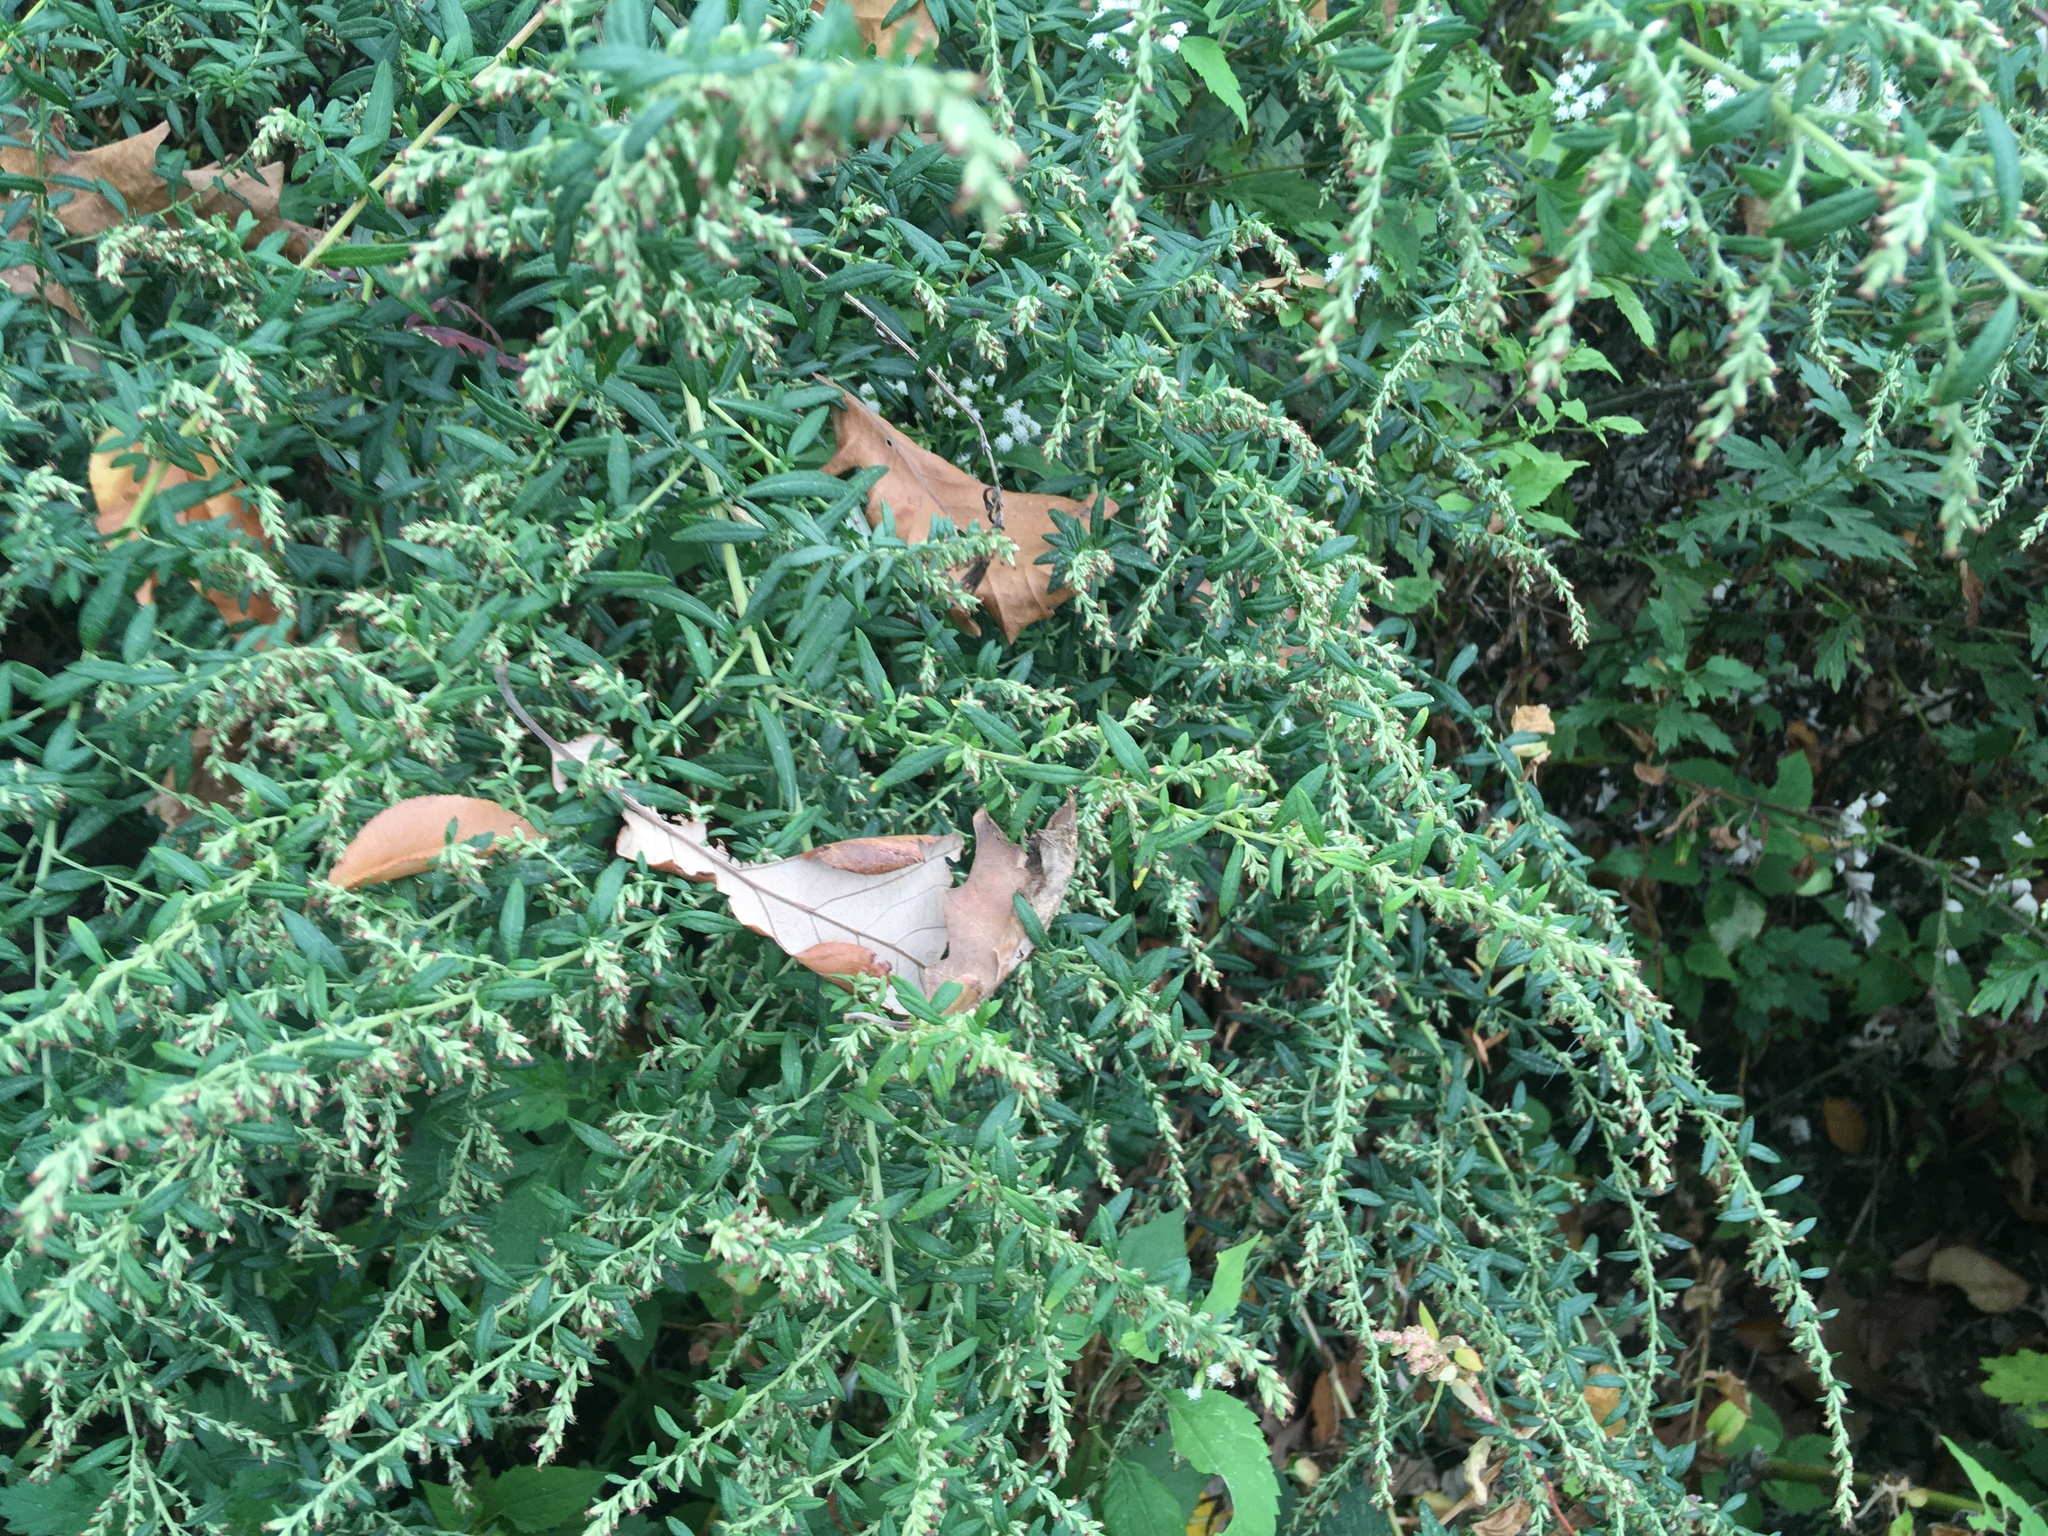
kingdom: Plantae
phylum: Tracheophyta
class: Magnoliopsida
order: Asterales
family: Asteraceae
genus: Artemisia
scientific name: Artemisia vulgaris
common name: Mugwort
